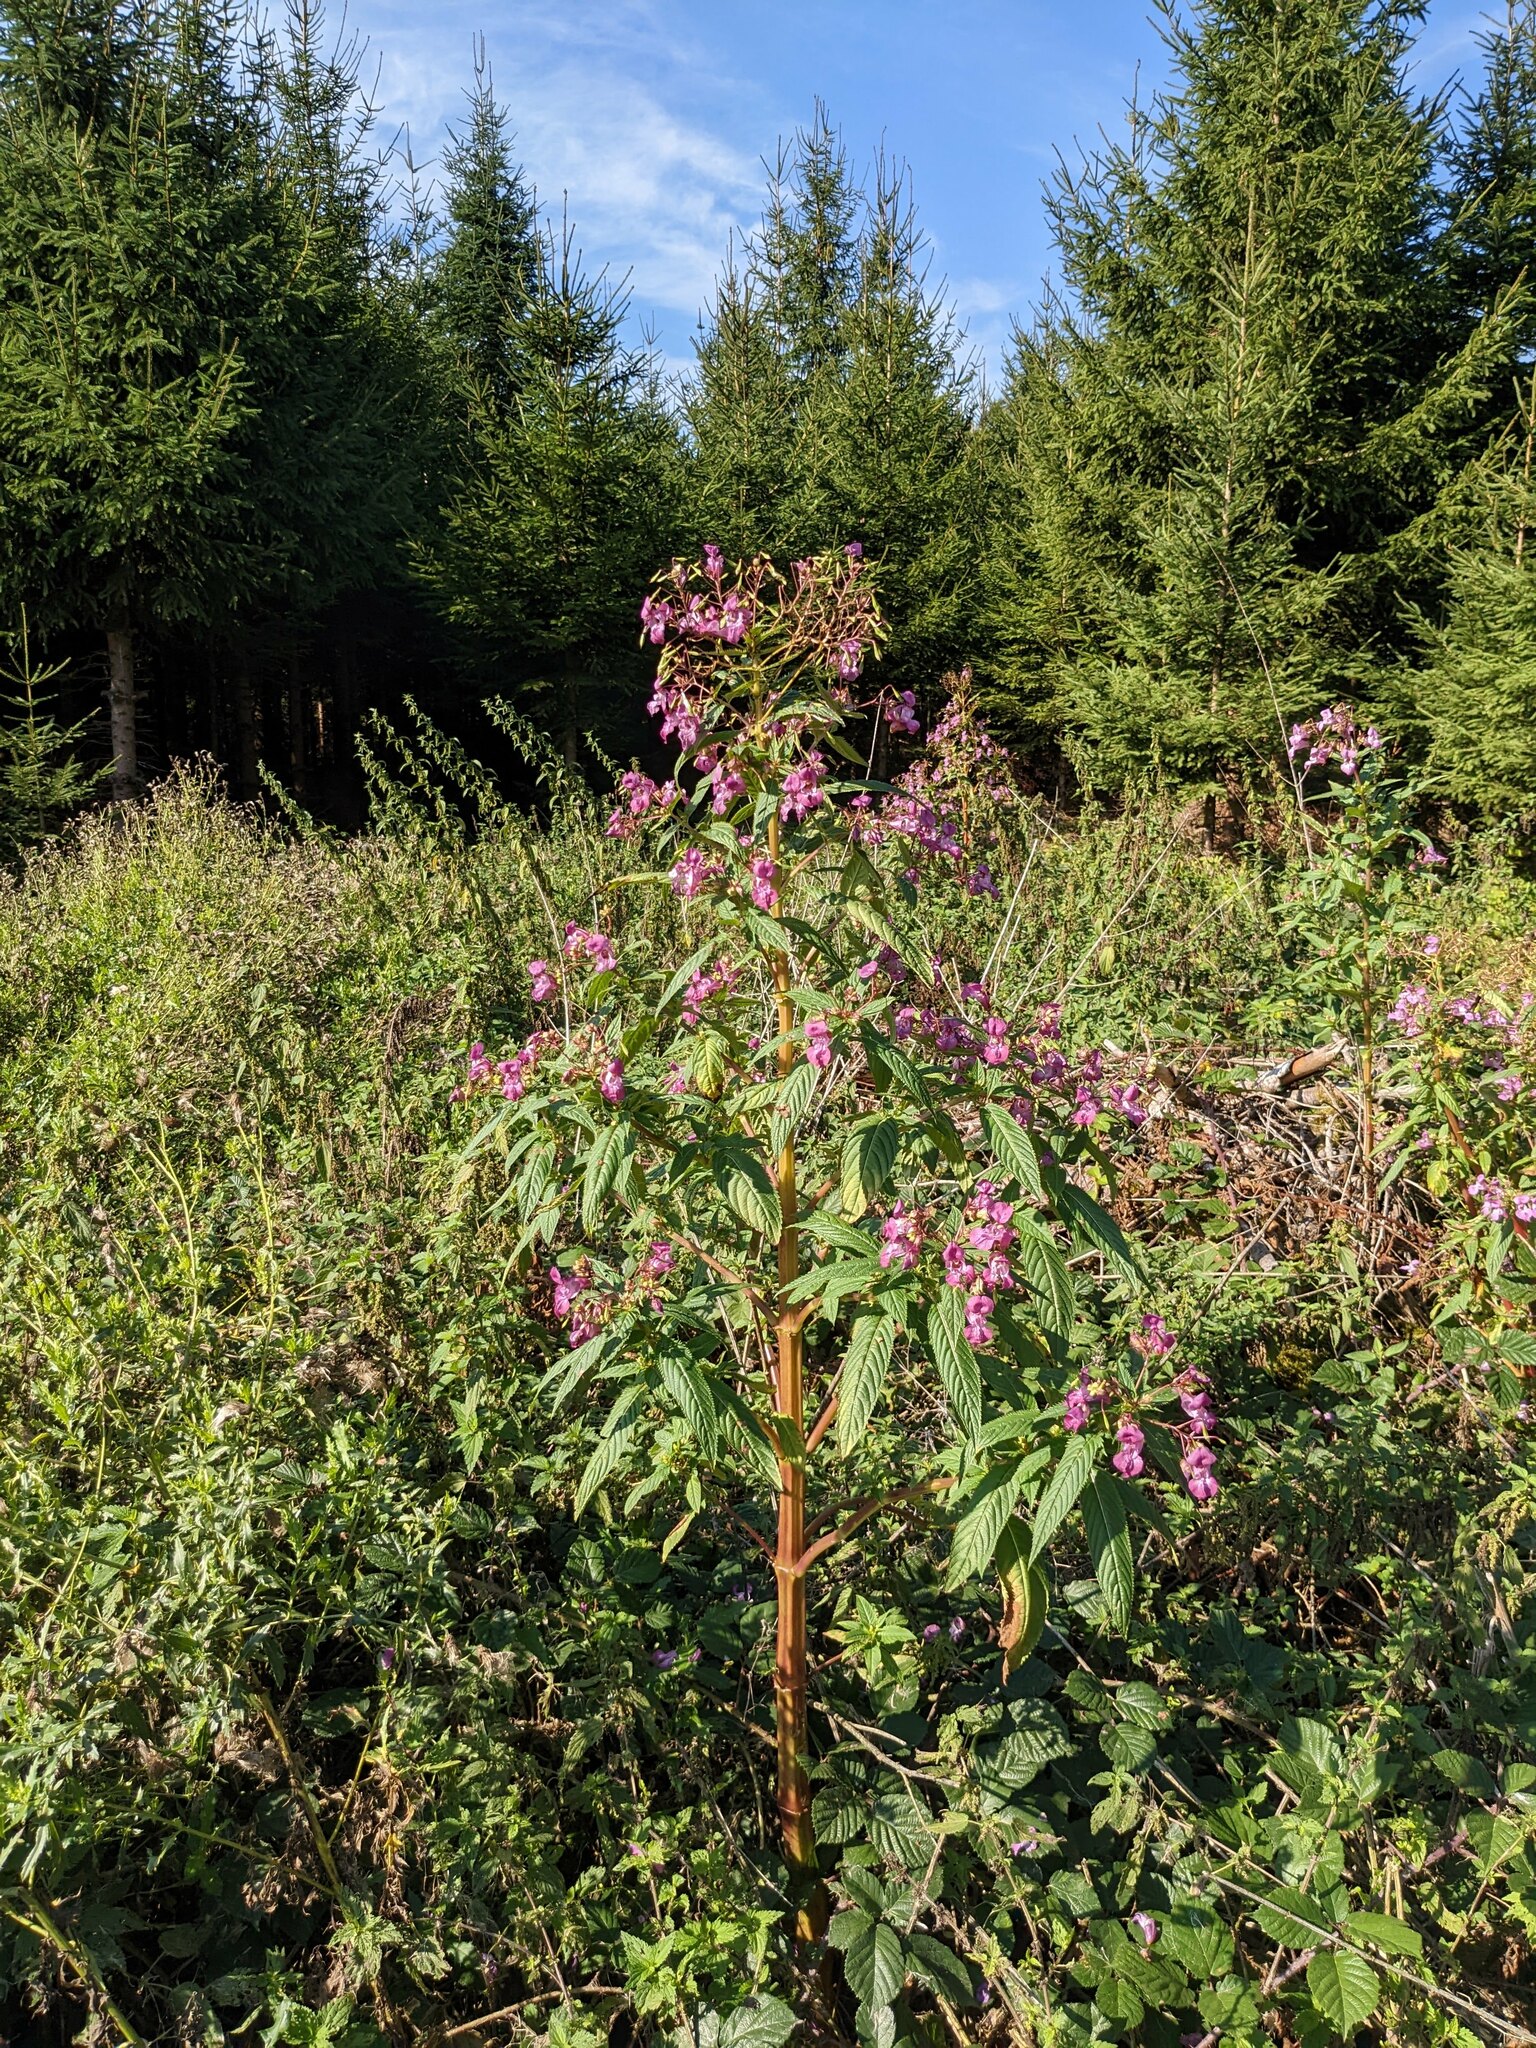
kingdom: Plantae
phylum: Tracheophyta
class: Magnoliopsida
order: Ericales
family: Balsaminaceae
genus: Impatiens
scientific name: Impatiens glandulifera
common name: Himalayan balsam
